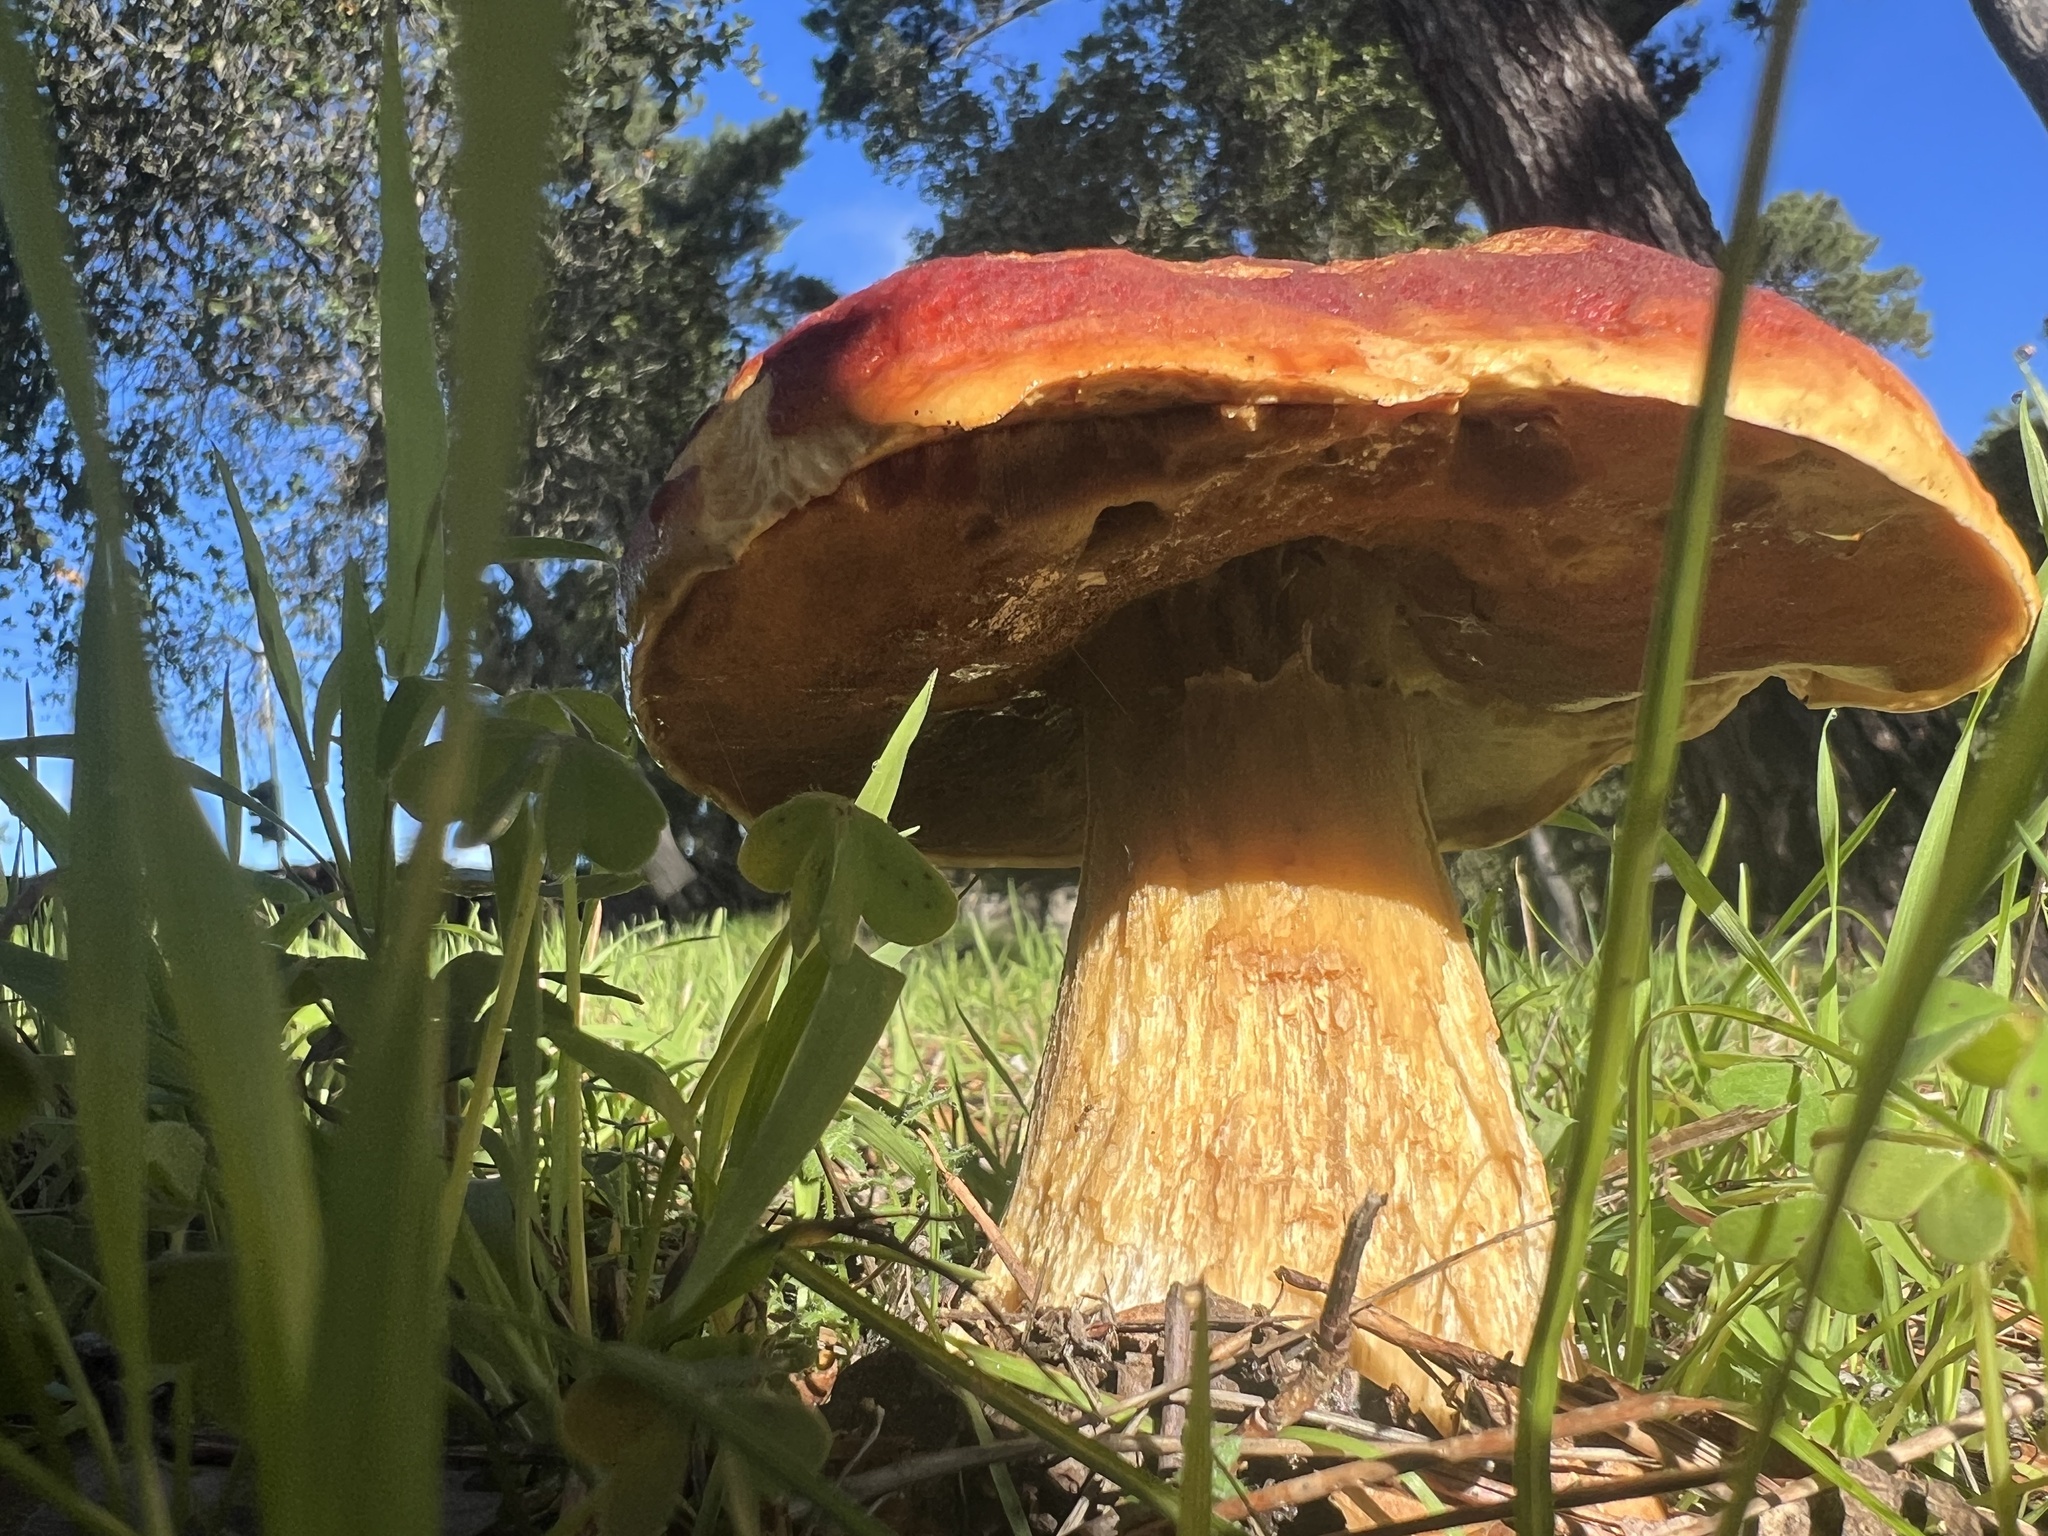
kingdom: Fungi
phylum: Basidiomycota
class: Agaricomycetes
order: Boletales
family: Boletaceae
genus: Boletus
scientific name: Boletus edulis
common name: Cep
